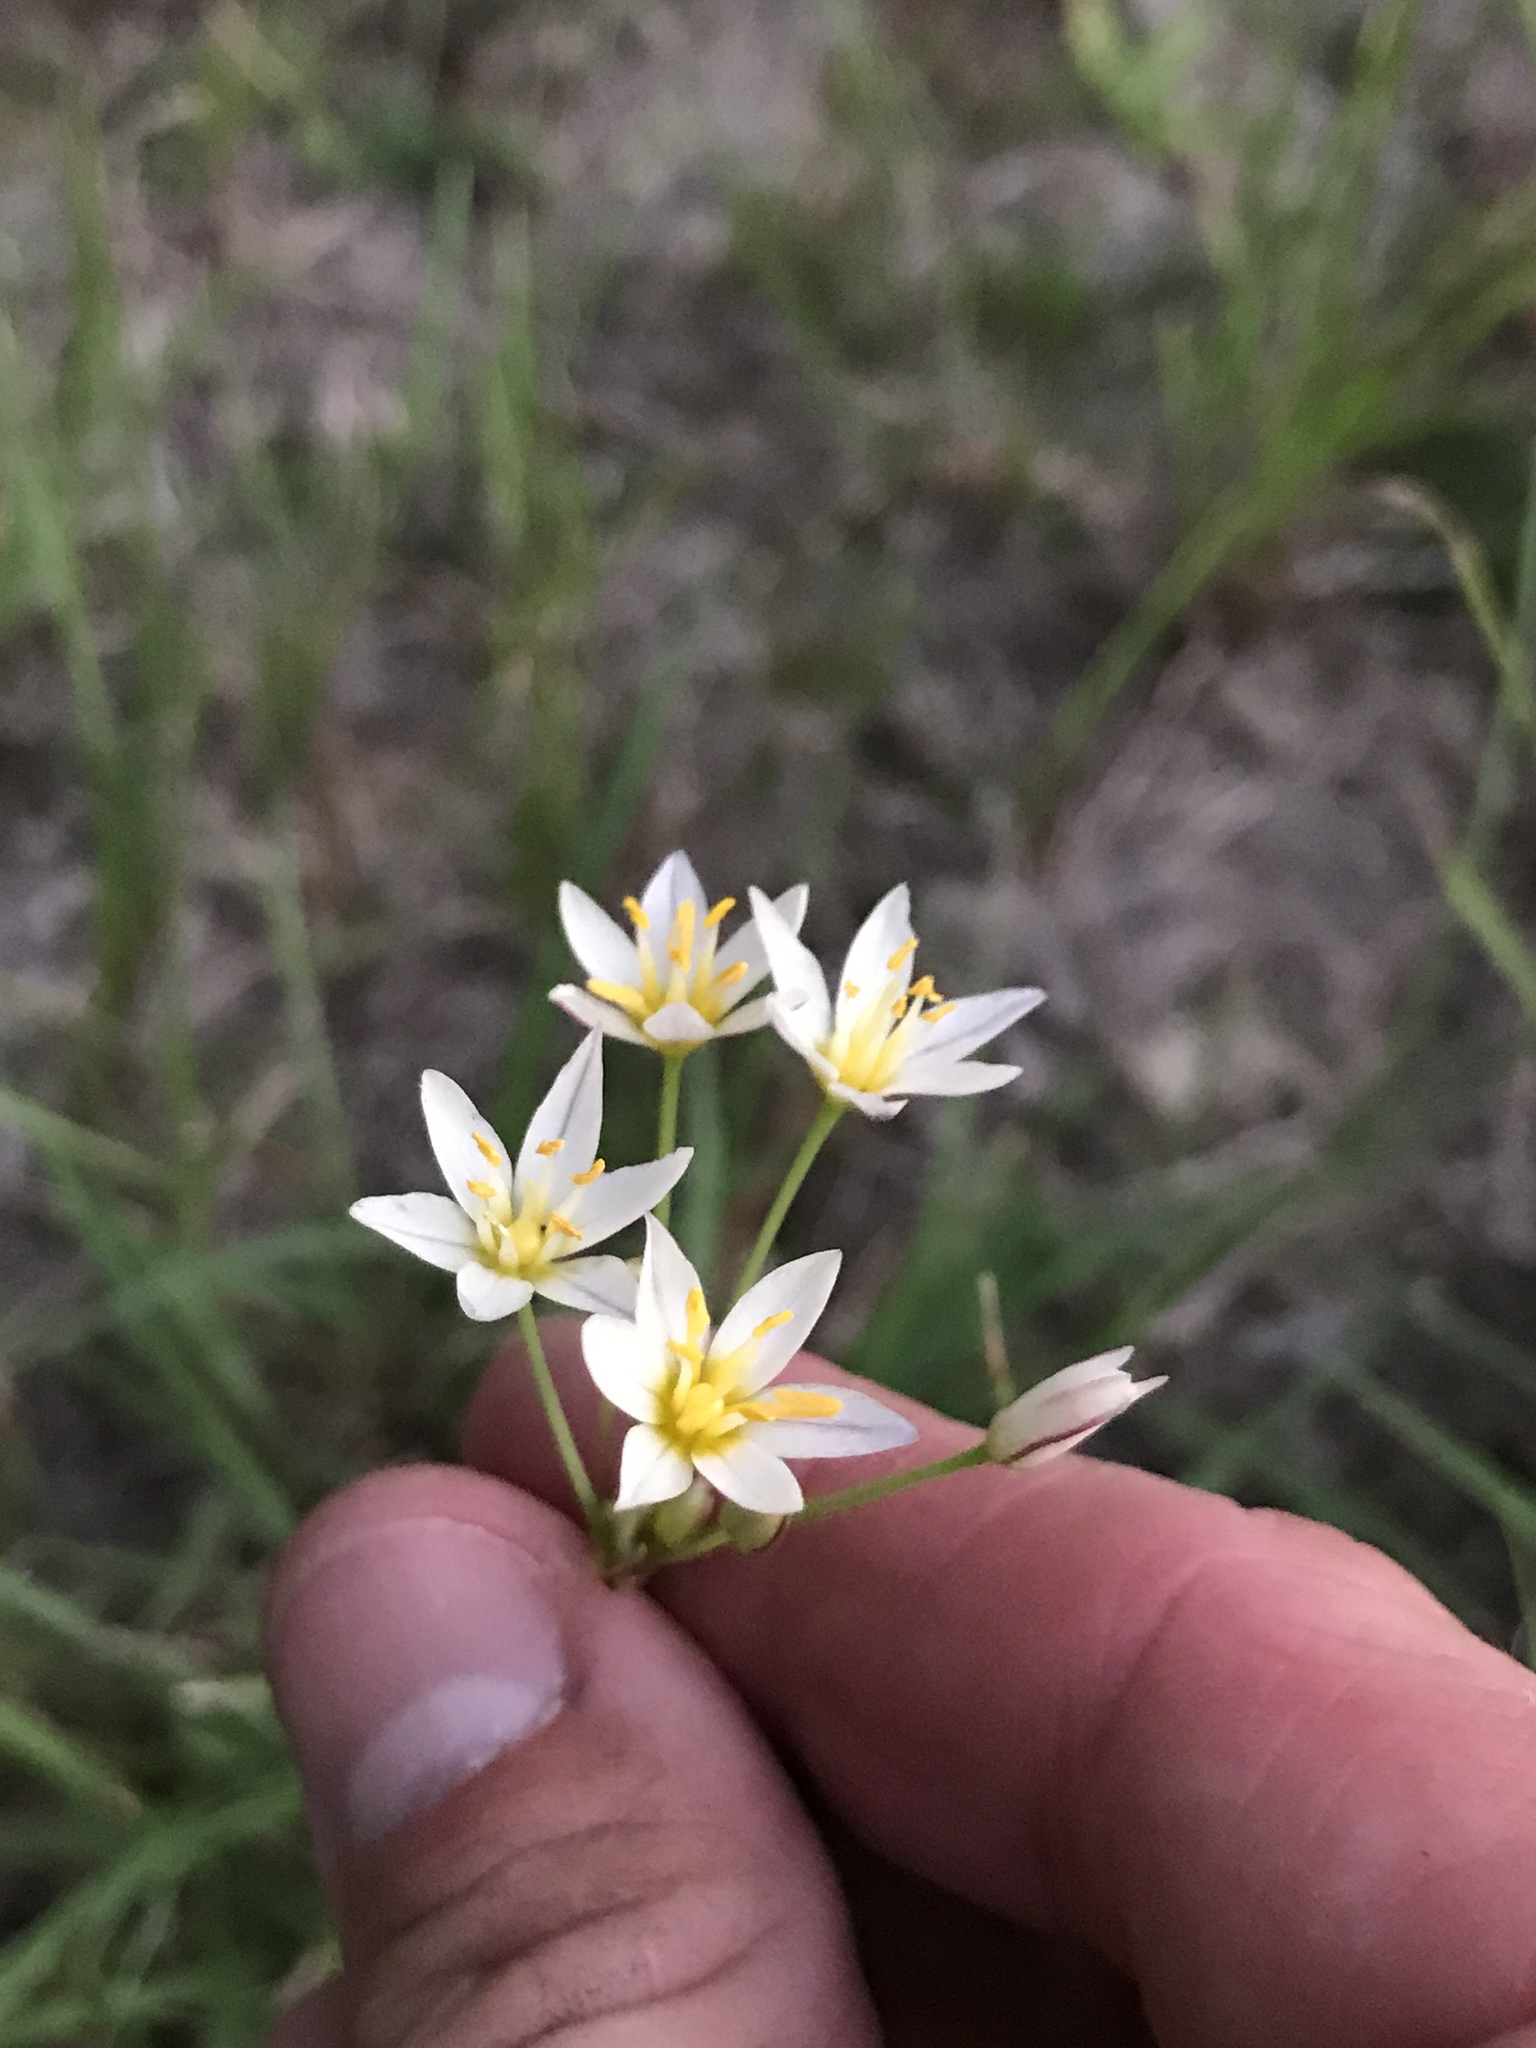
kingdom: Plantae
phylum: Tracheophyta
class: Liliopsida
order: Asparagales
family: Amaryllidaceae
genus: Nothoscordum
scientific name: Nothoscordum bivalve
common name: Crow-poison
